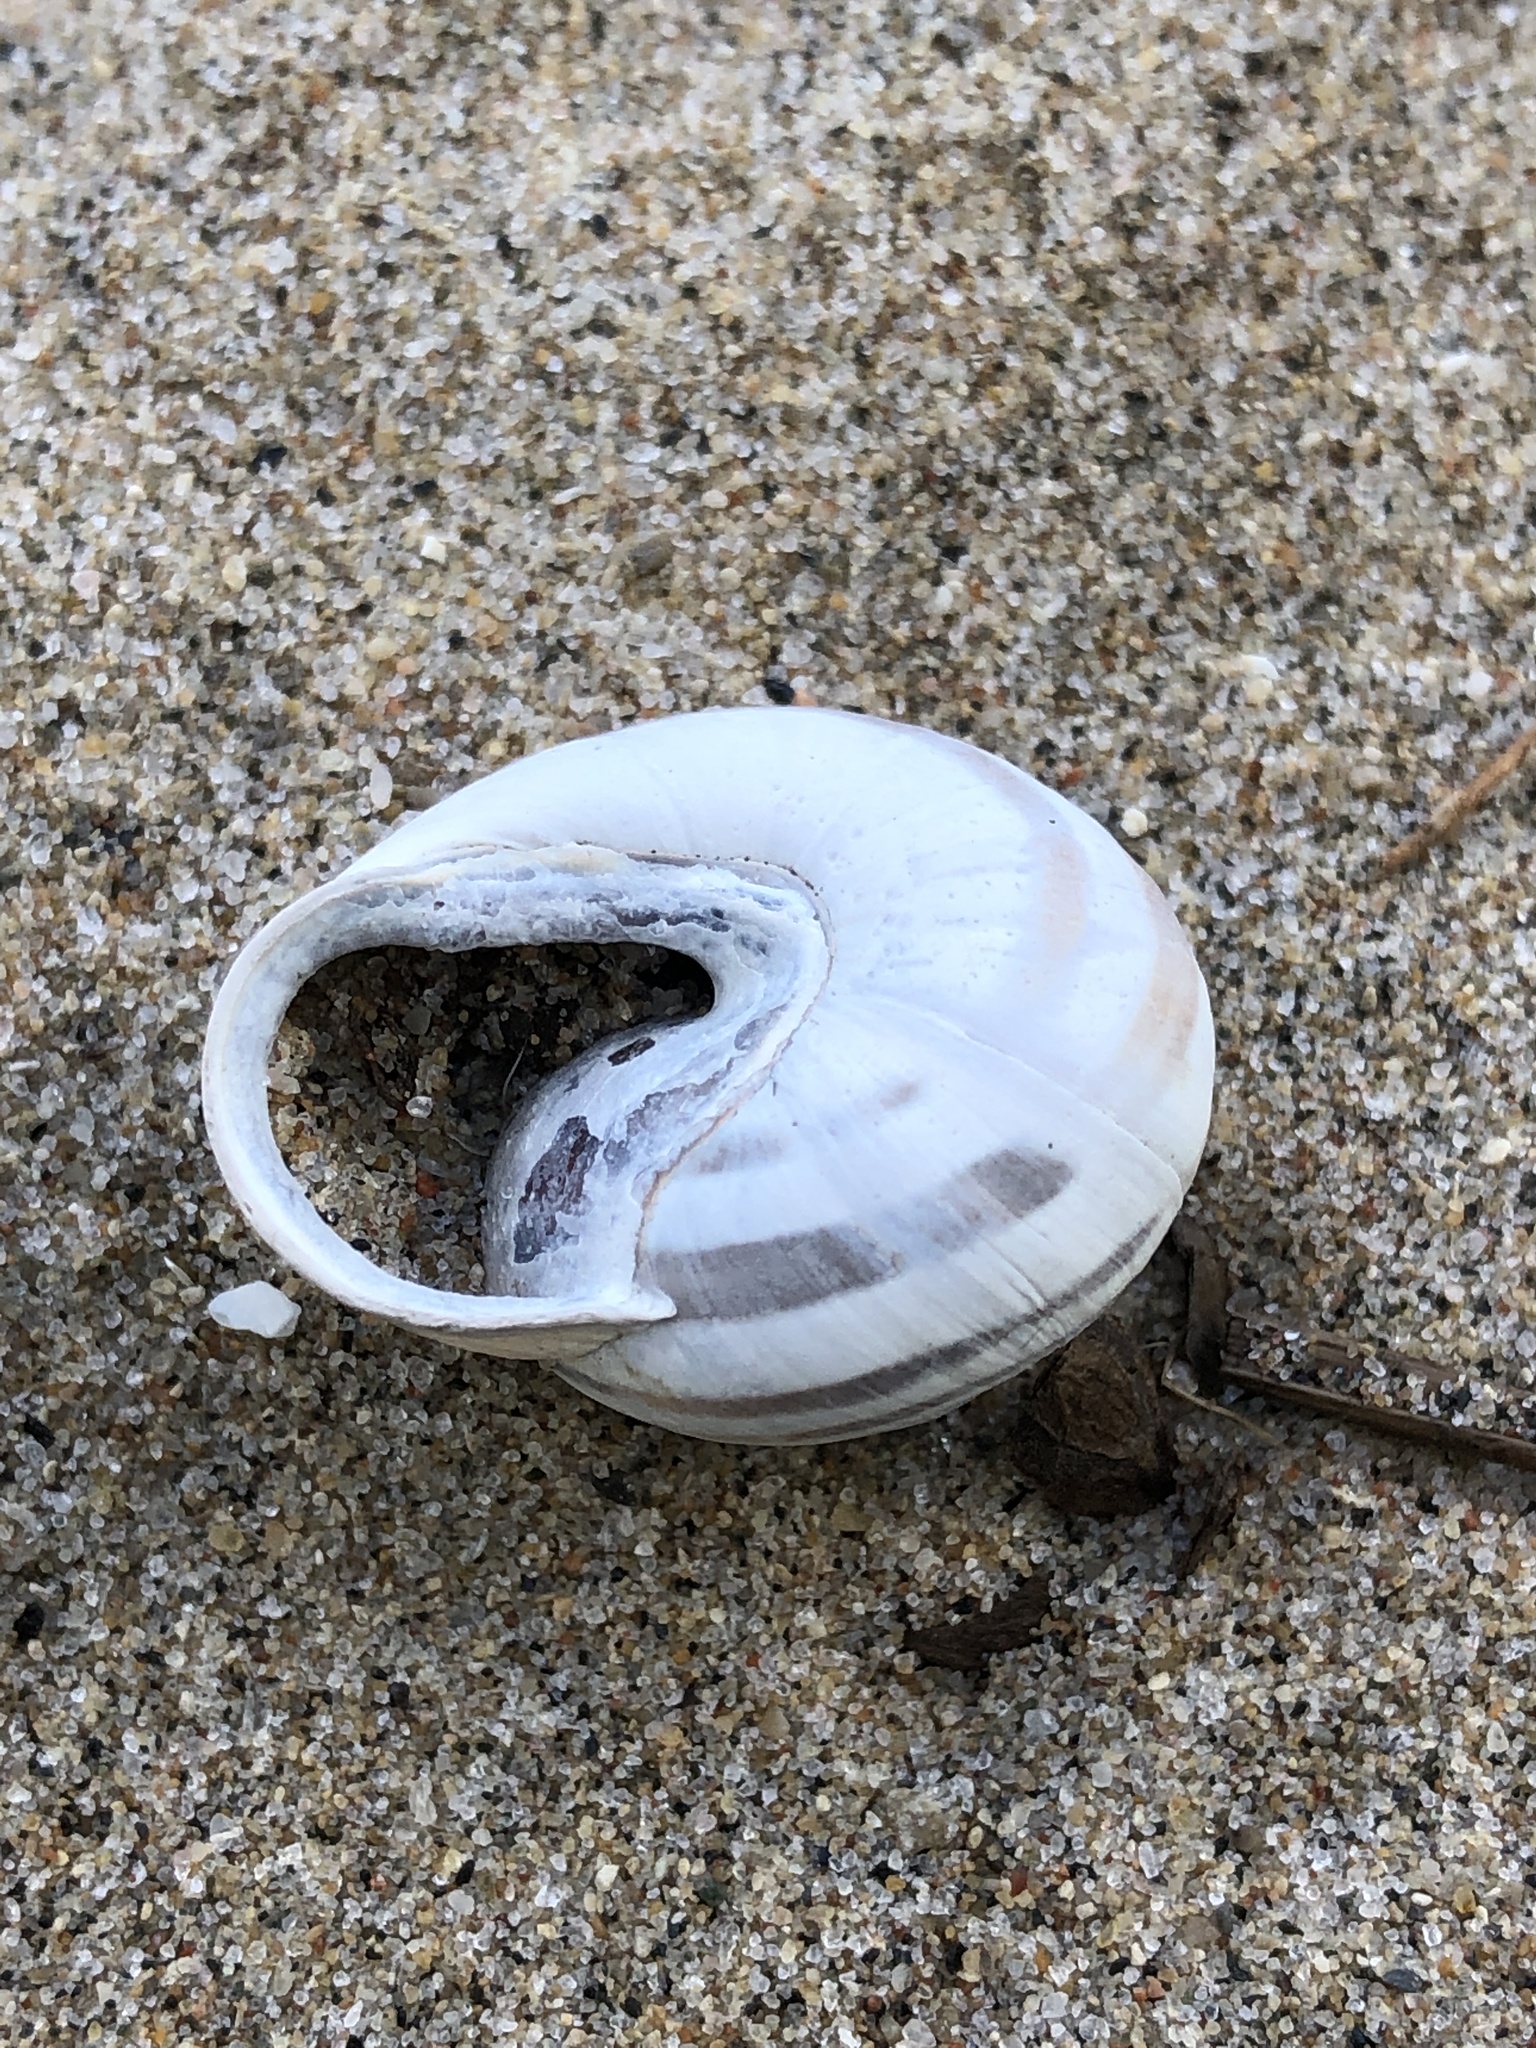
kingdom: Animalia
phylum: Mollusca
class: Gastropoda
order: Stylommatophora
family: Helicidae
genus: Cepaea
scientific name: Cepaea nemoralis
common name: Grovesnail
